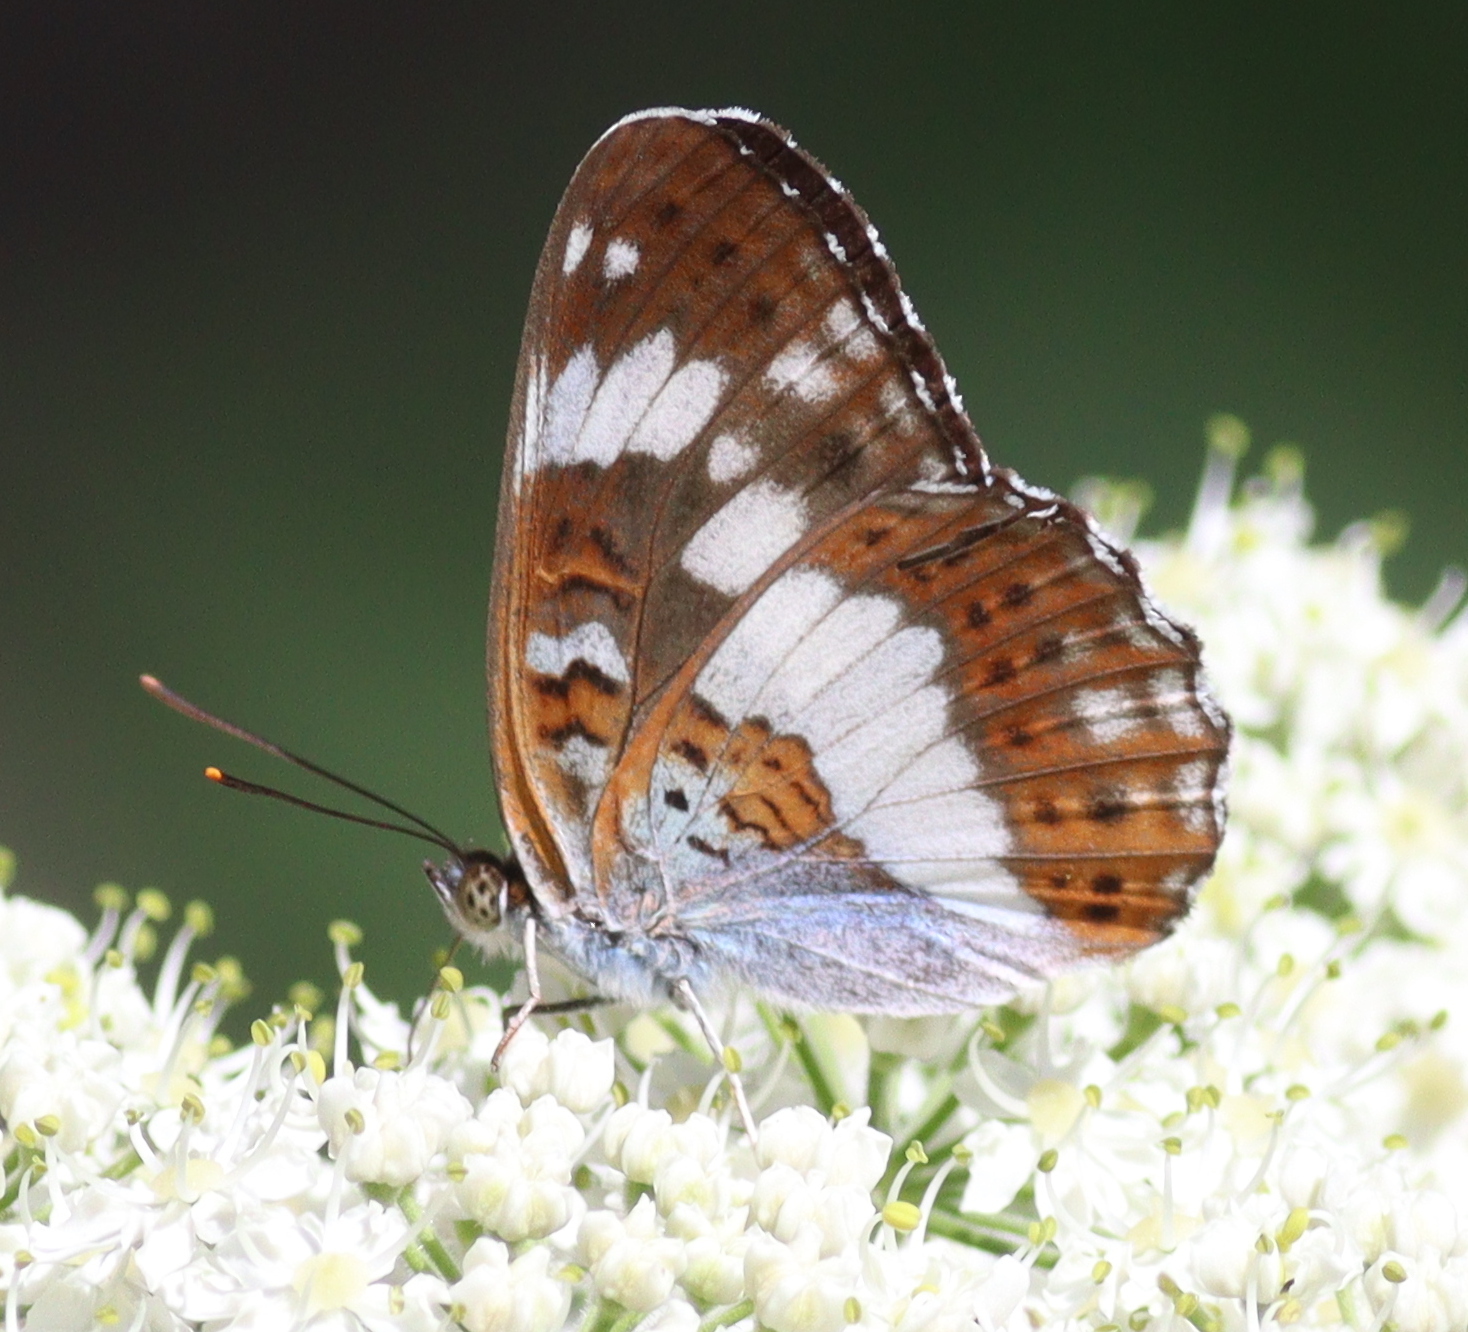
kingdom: Animalia
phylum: Arthropoda
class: Insecta
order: Lepidoptera
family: Nymphalidae
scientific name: Nymphalidae
